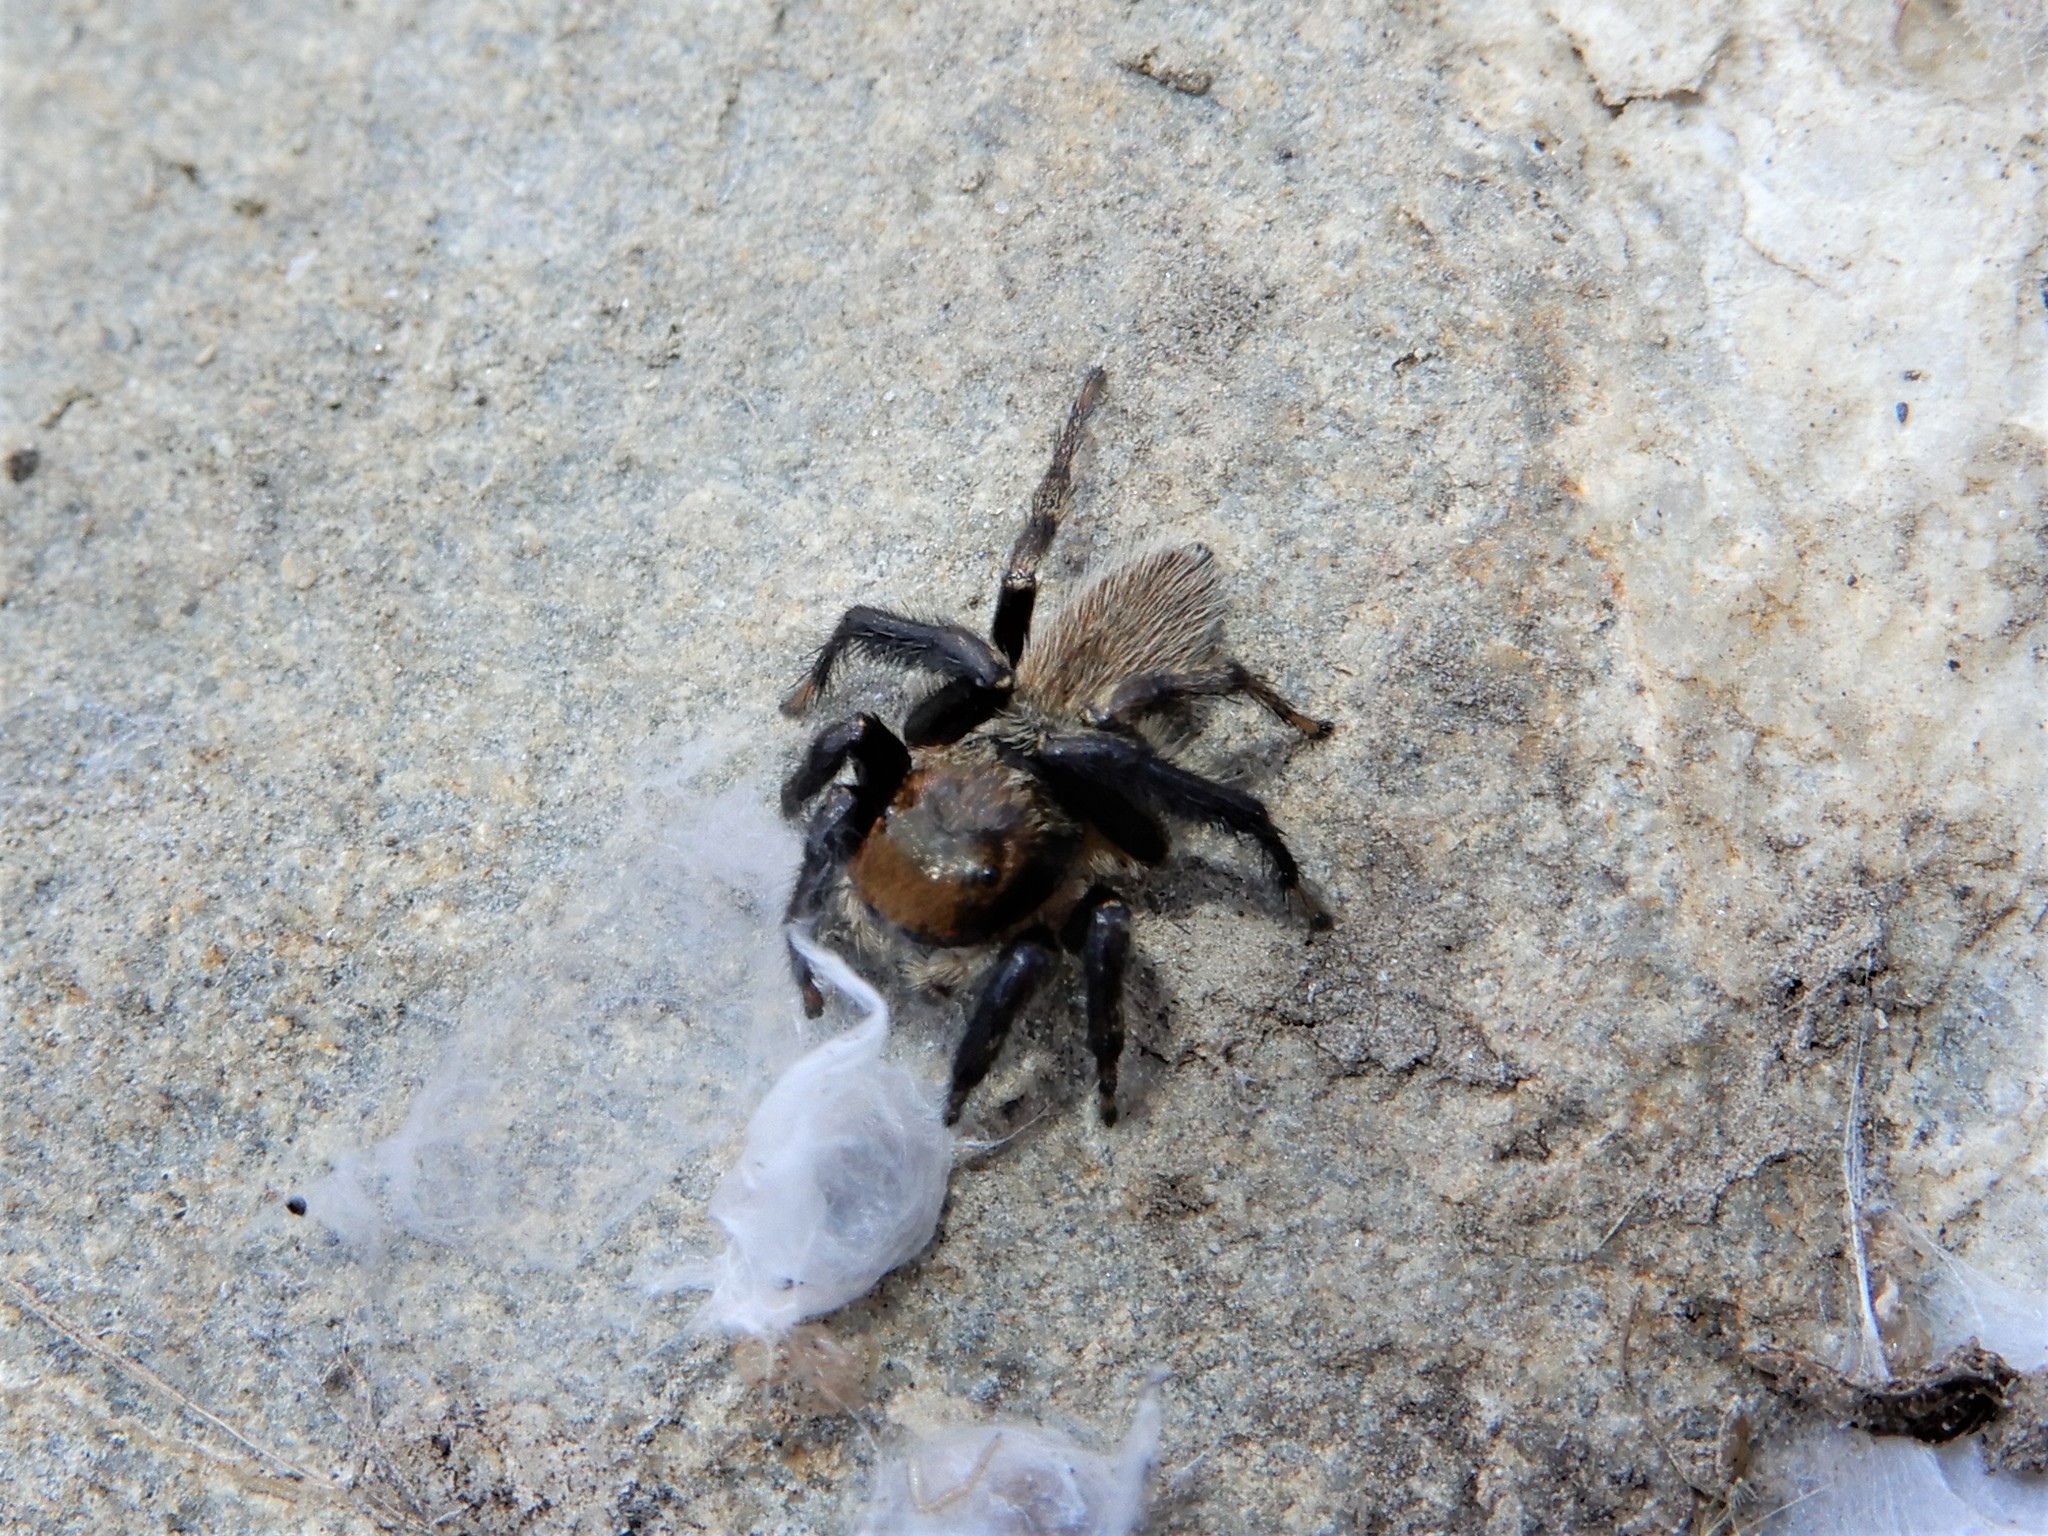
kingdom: Animalia
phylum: Arthropoda
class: Arachnida
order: Araneae
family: Salticidae
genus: Maratus
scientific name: Maratus griseus
